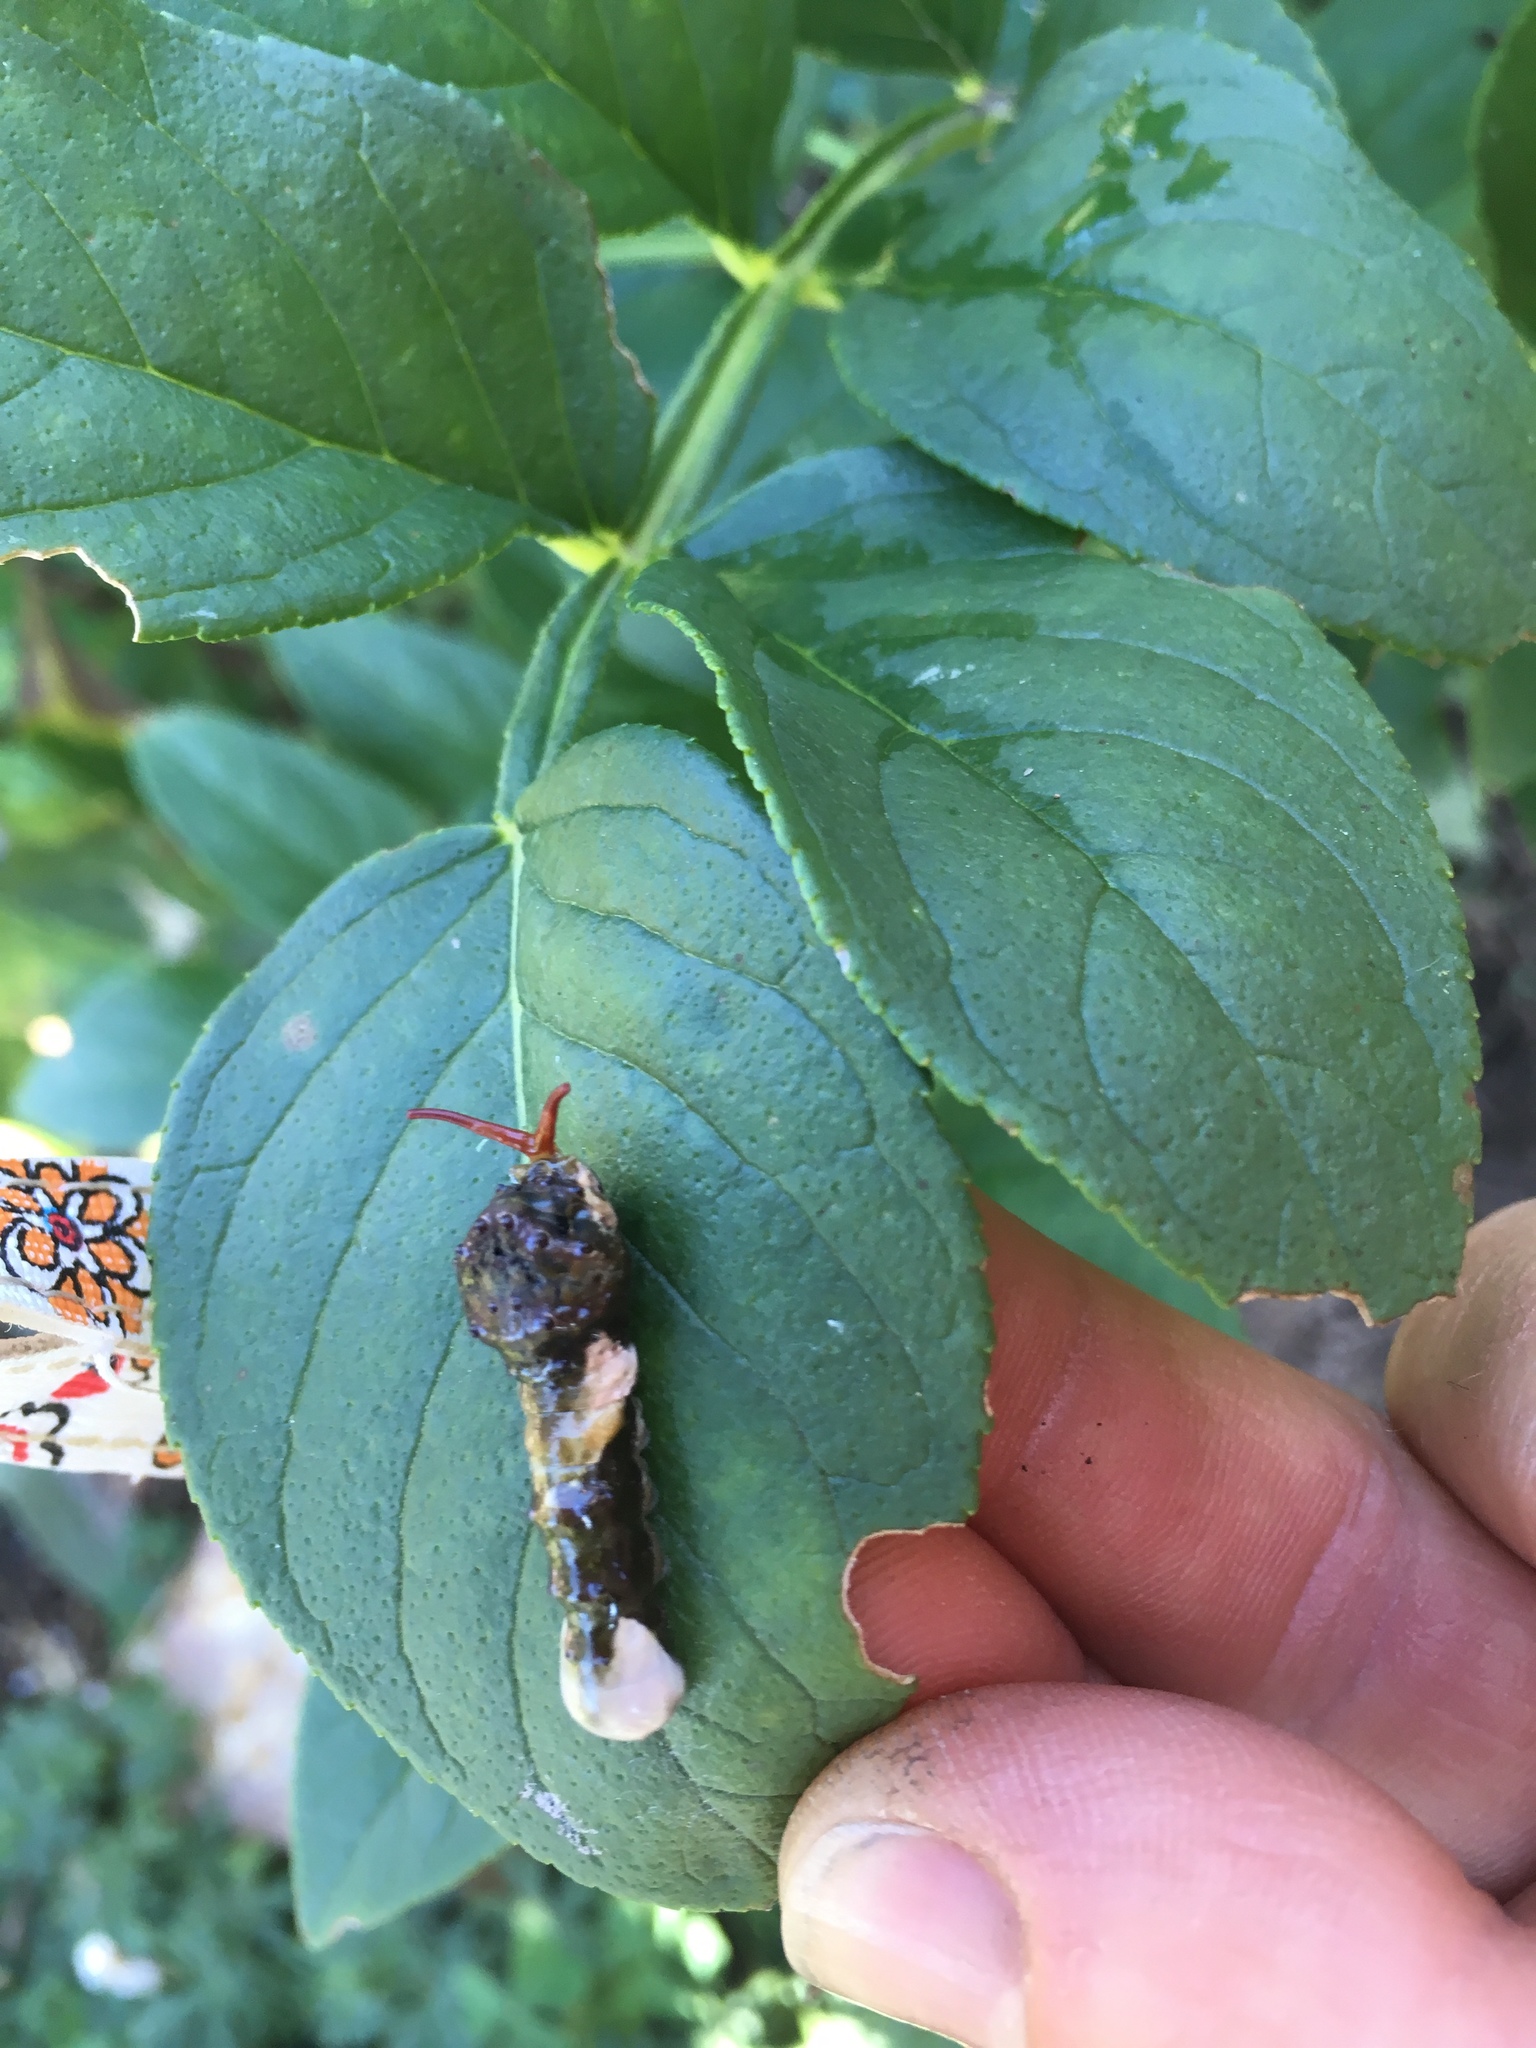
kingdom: Animalia
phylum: Arthropoda
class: Insecta
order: Lepidoptera
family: Papilionidae
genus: Papilio
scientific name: Papilio cresphontes
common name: Giant swallowtail
